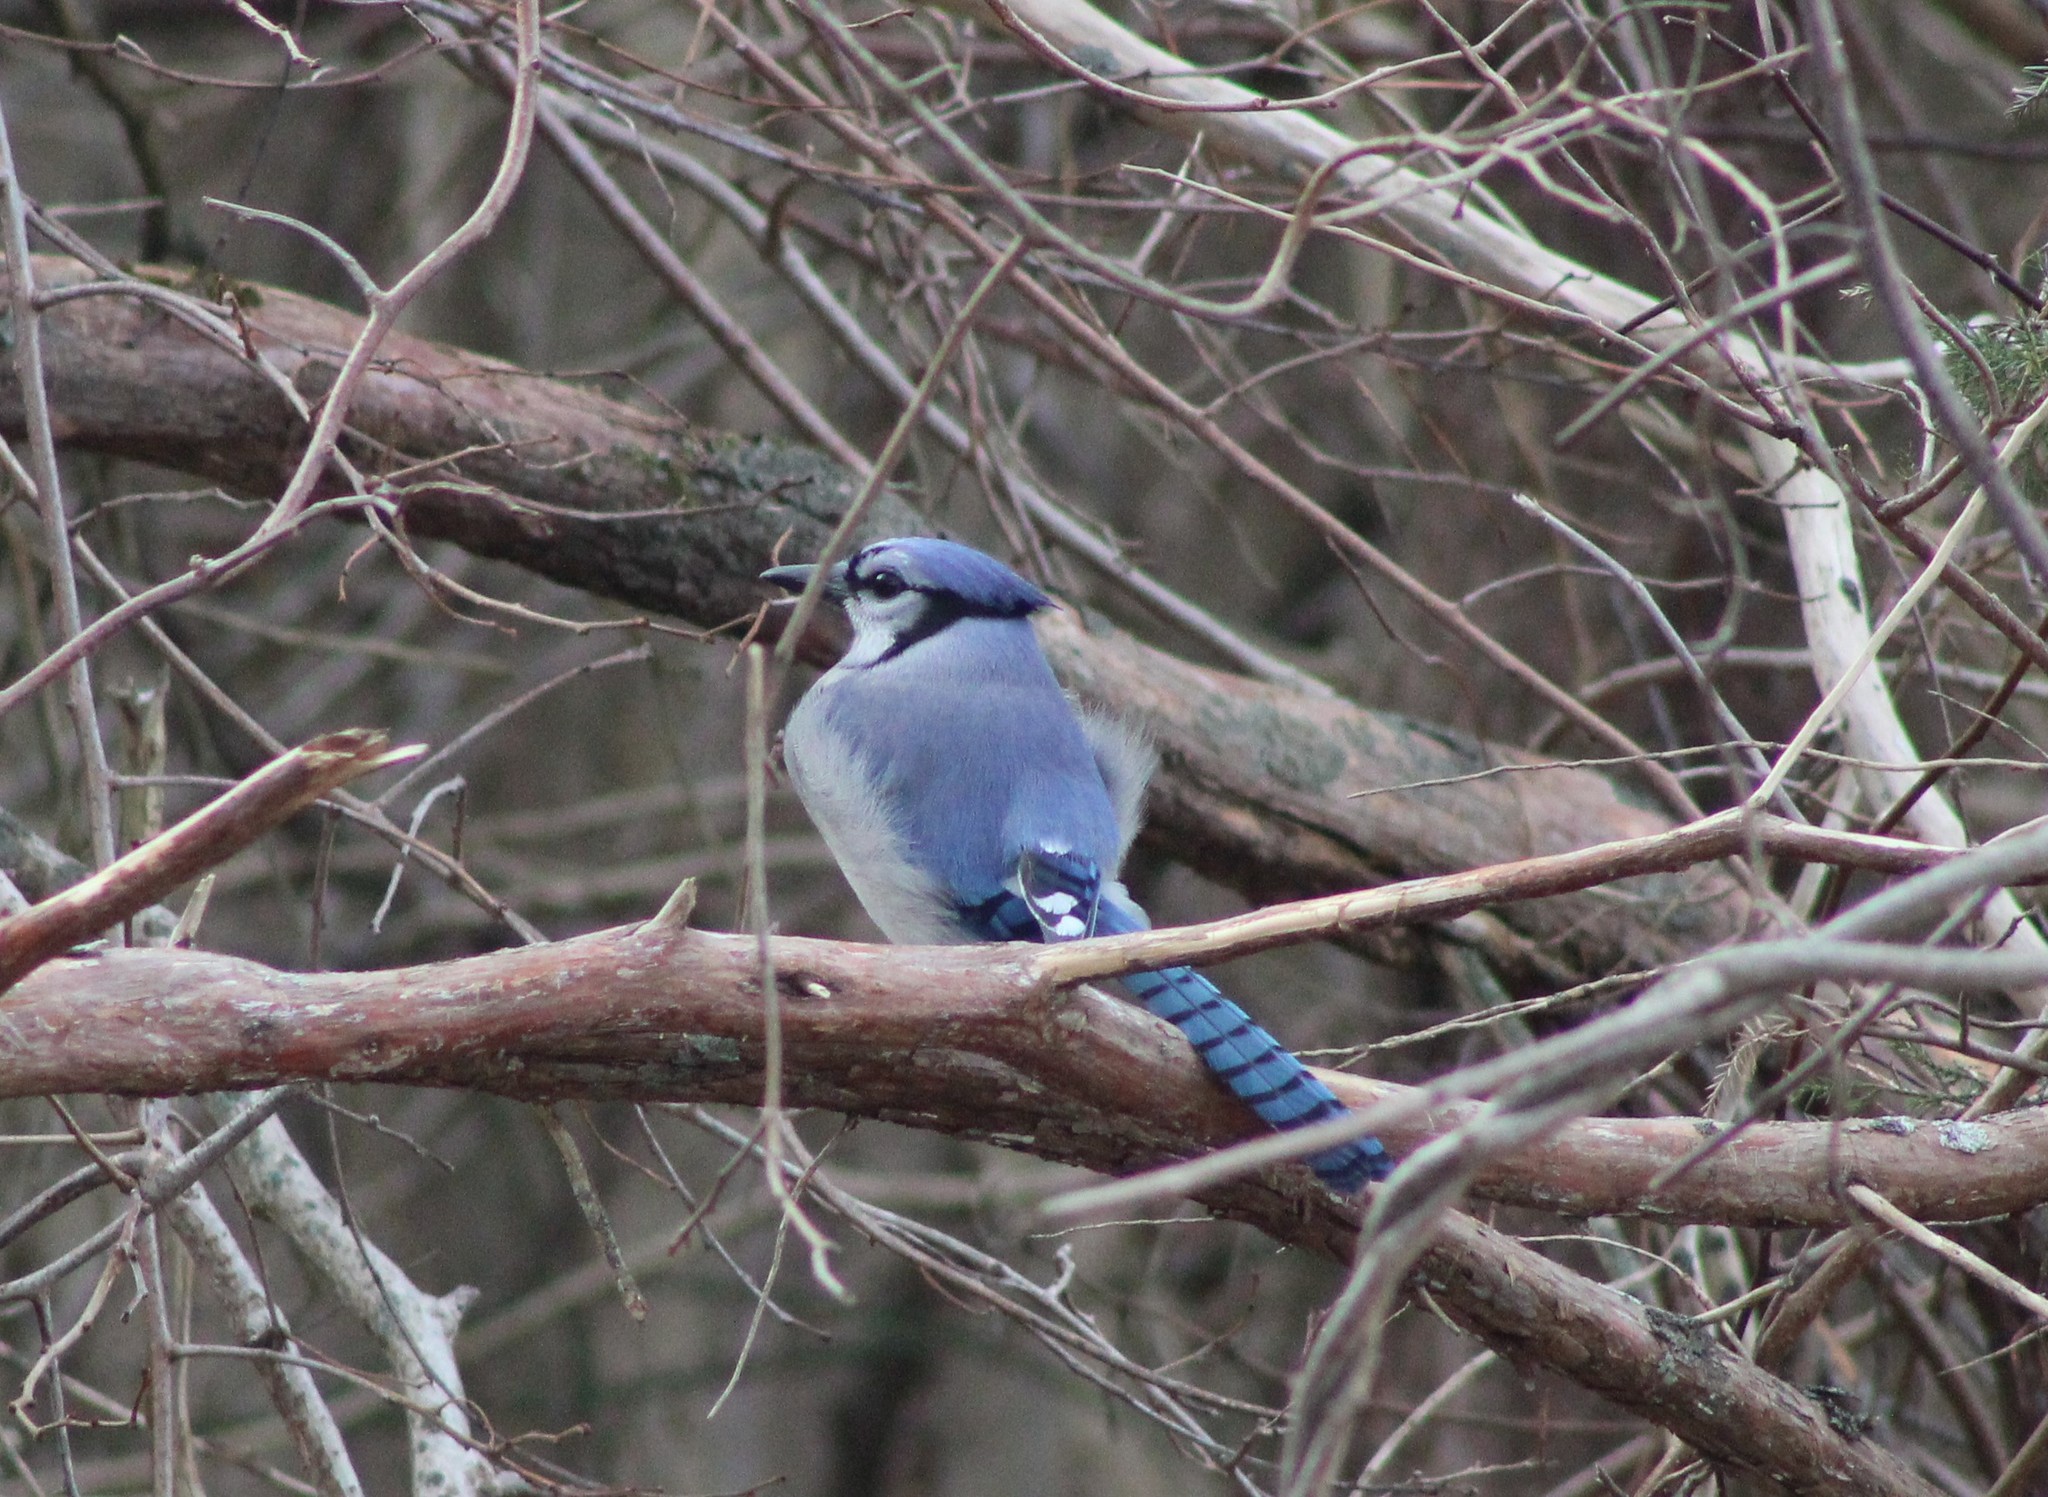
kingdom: Animalia
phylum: Chordata
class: Aves
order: Passeriformes
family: Corvidae
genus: Cyanocitta
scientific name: Cyanocitta cristata
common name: Blue jay
